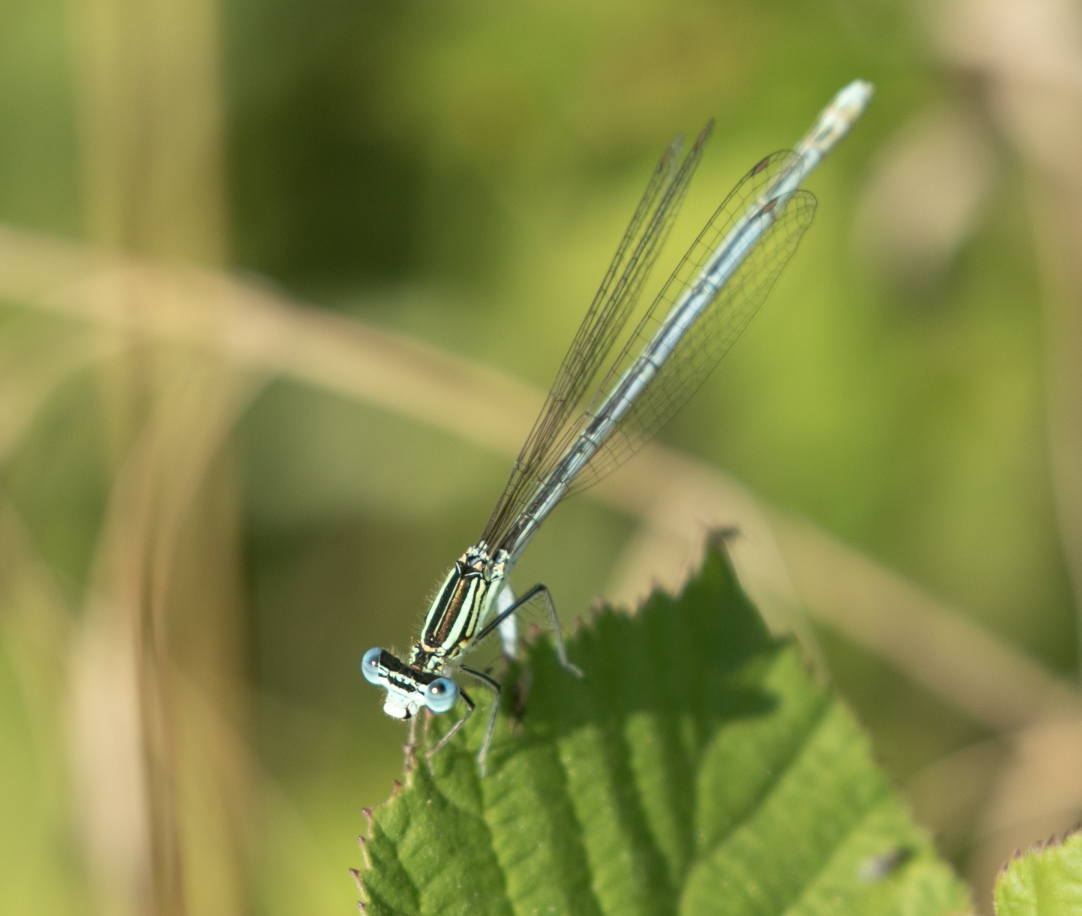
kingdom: Animalia
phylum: Arthropoda
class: Insecta
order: Odonata
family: Platycnemididae
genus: Platycnemis
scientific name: Platycnemis pennipes
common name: White-legged damselfly
